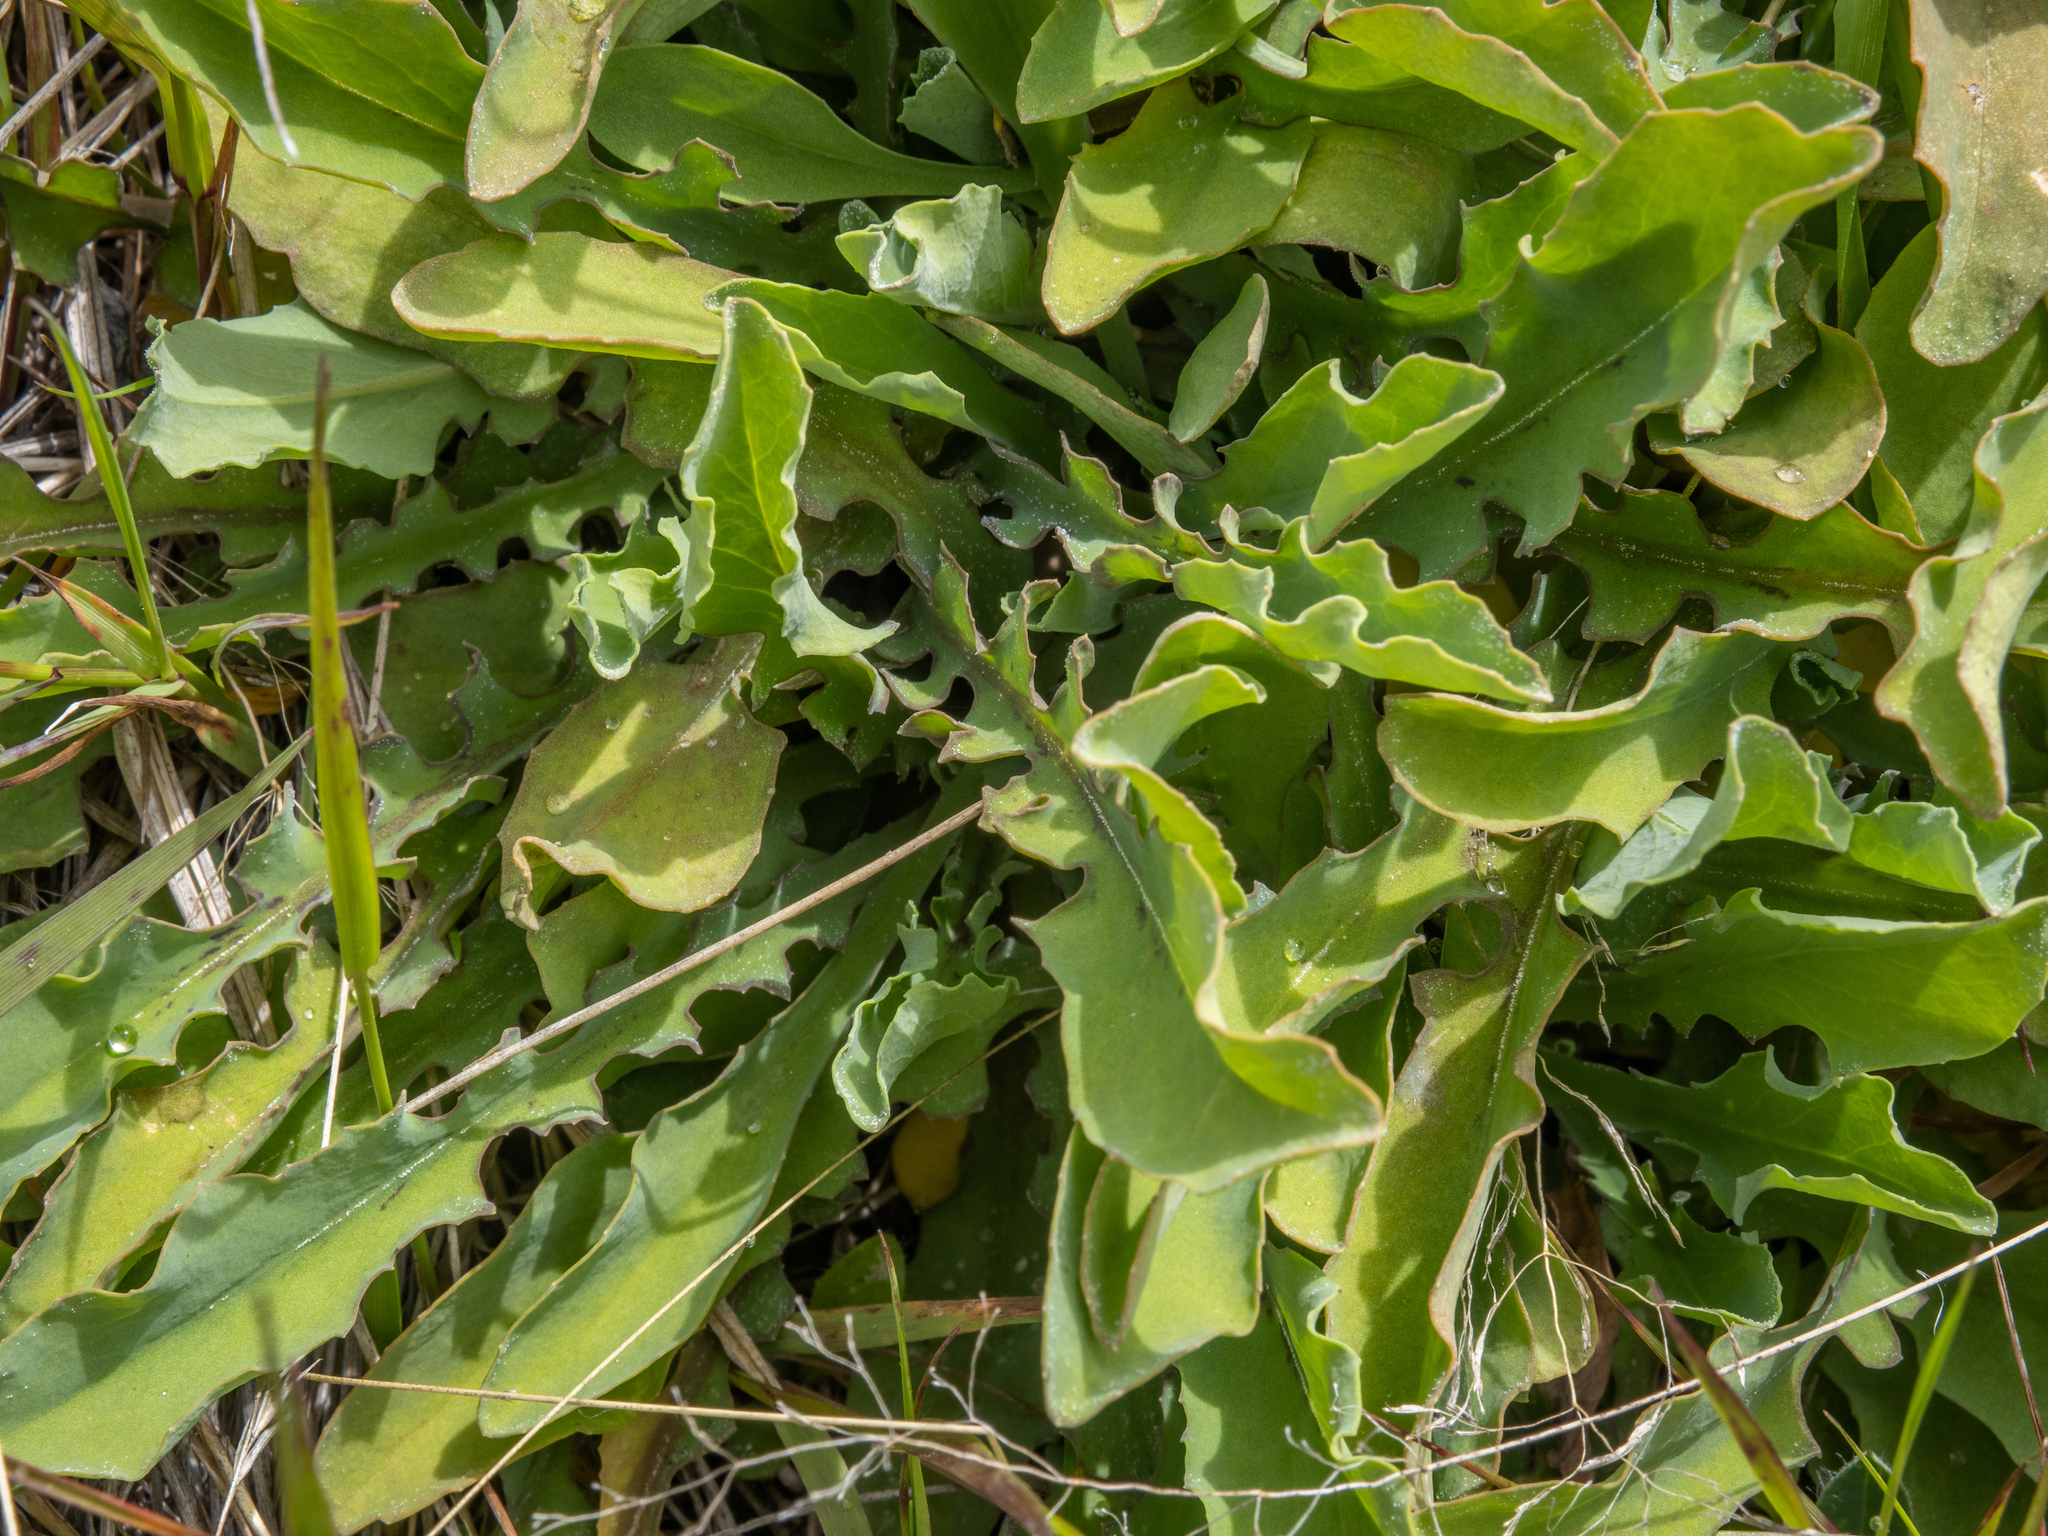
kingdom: Plantae
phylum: Tracheophyta
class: Magnoliopsida
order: Asterales
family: Asteraceae
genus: Sonchus
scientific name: Sonchus novae-zelandiae
